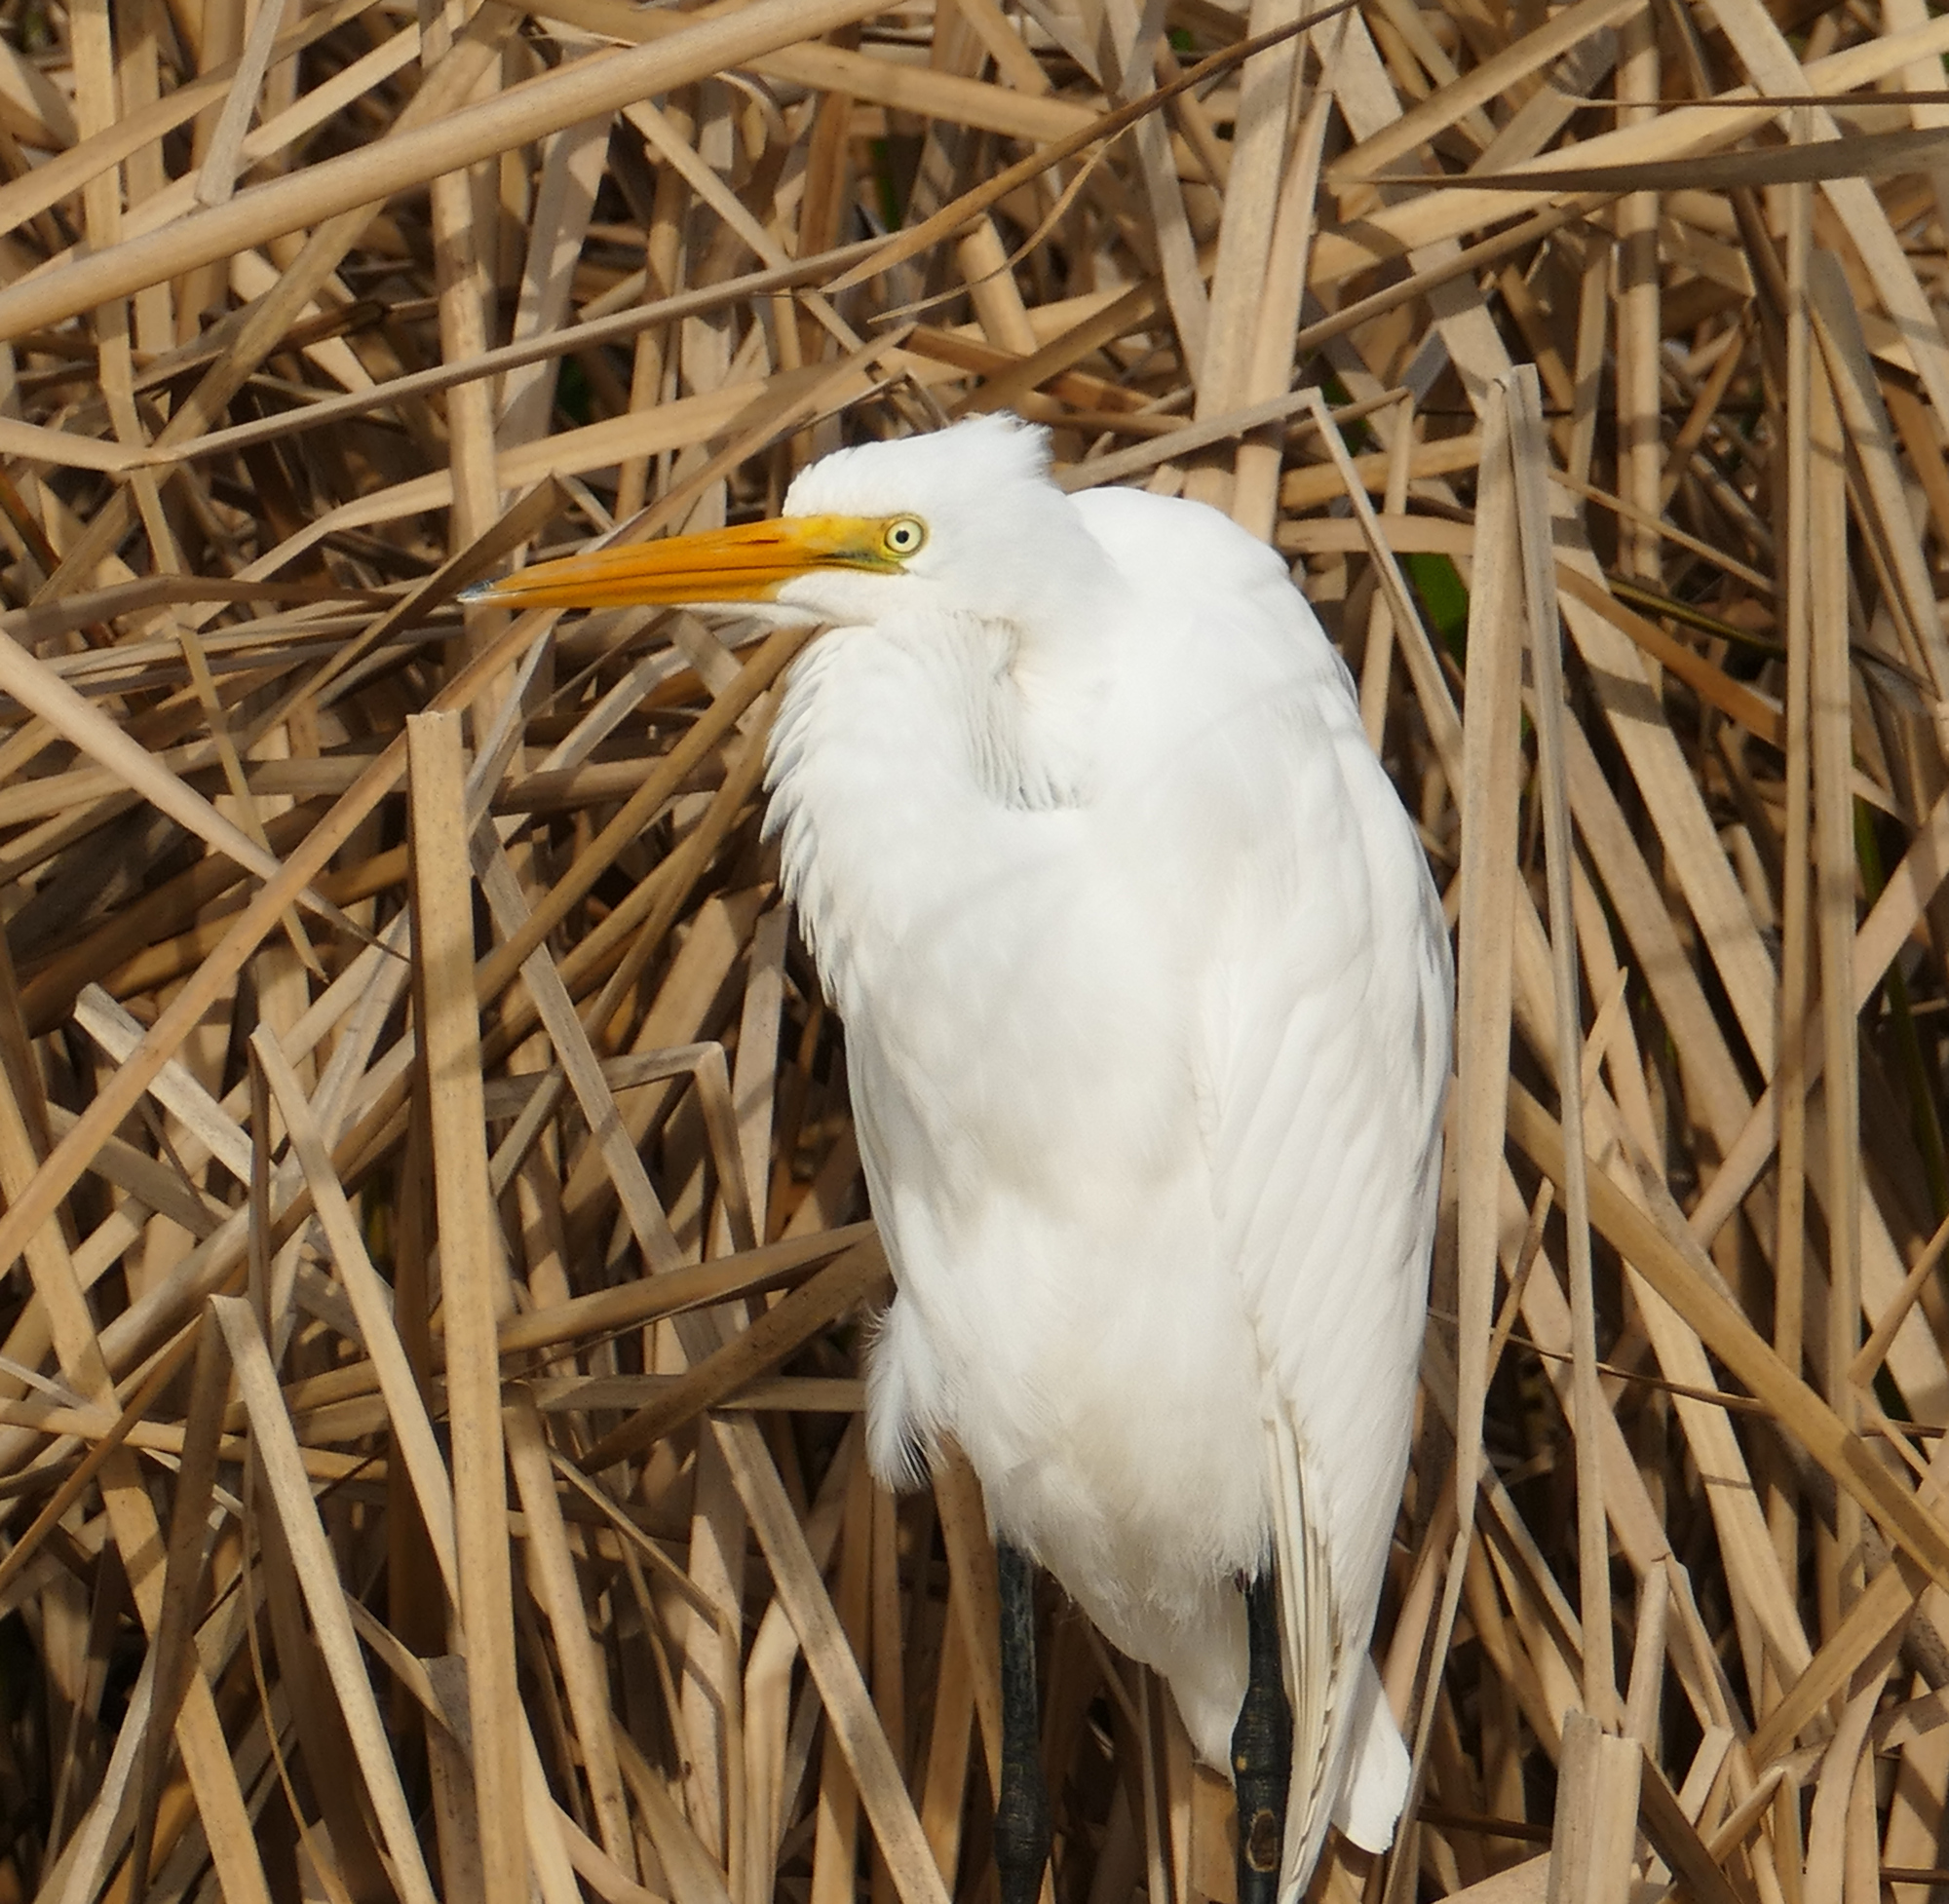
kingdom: Animalia
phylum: Chordata
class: Aves
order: Pelecaniformes
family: Ardeidae
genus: Ardea
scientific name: Ardea alba
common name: Great egret
